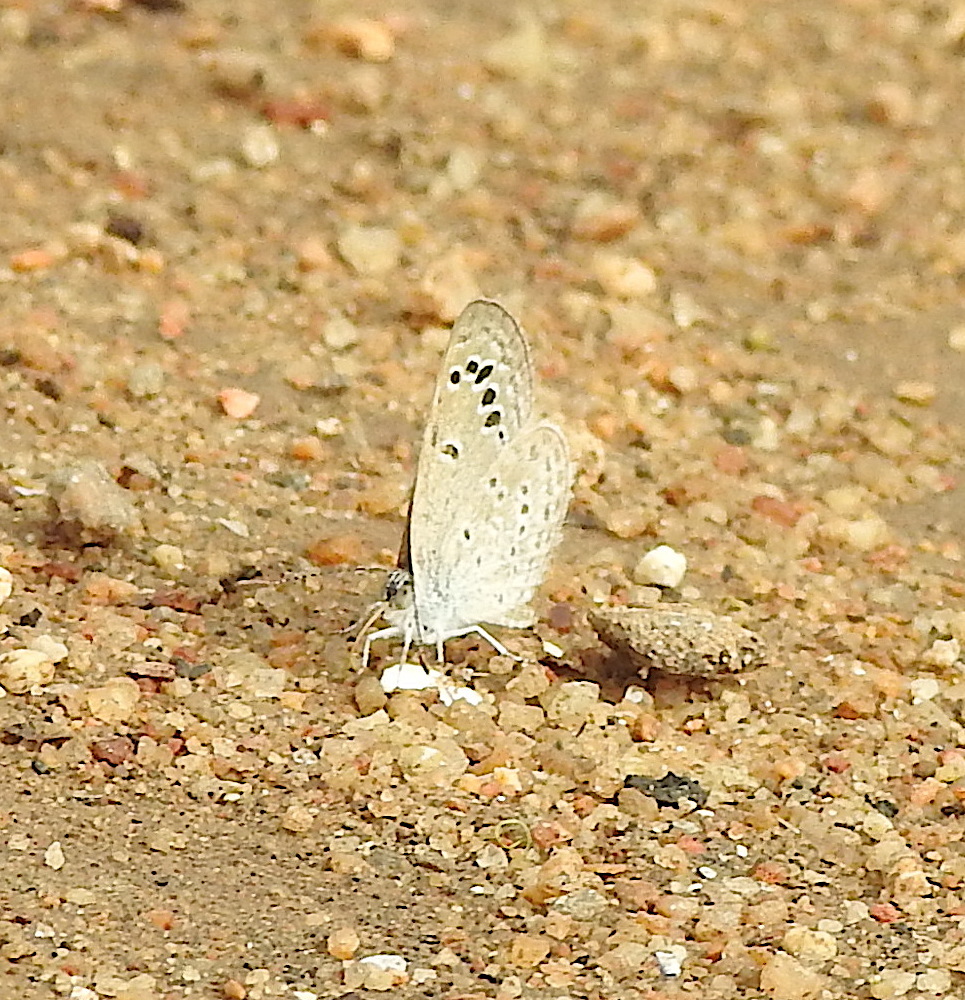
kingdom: Animalia
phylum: Arthropoda
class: Insecta
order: Lepidoptera
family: Lycaenidae
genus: Zizina
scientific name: Zizina otis
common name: Lesser grass blue
